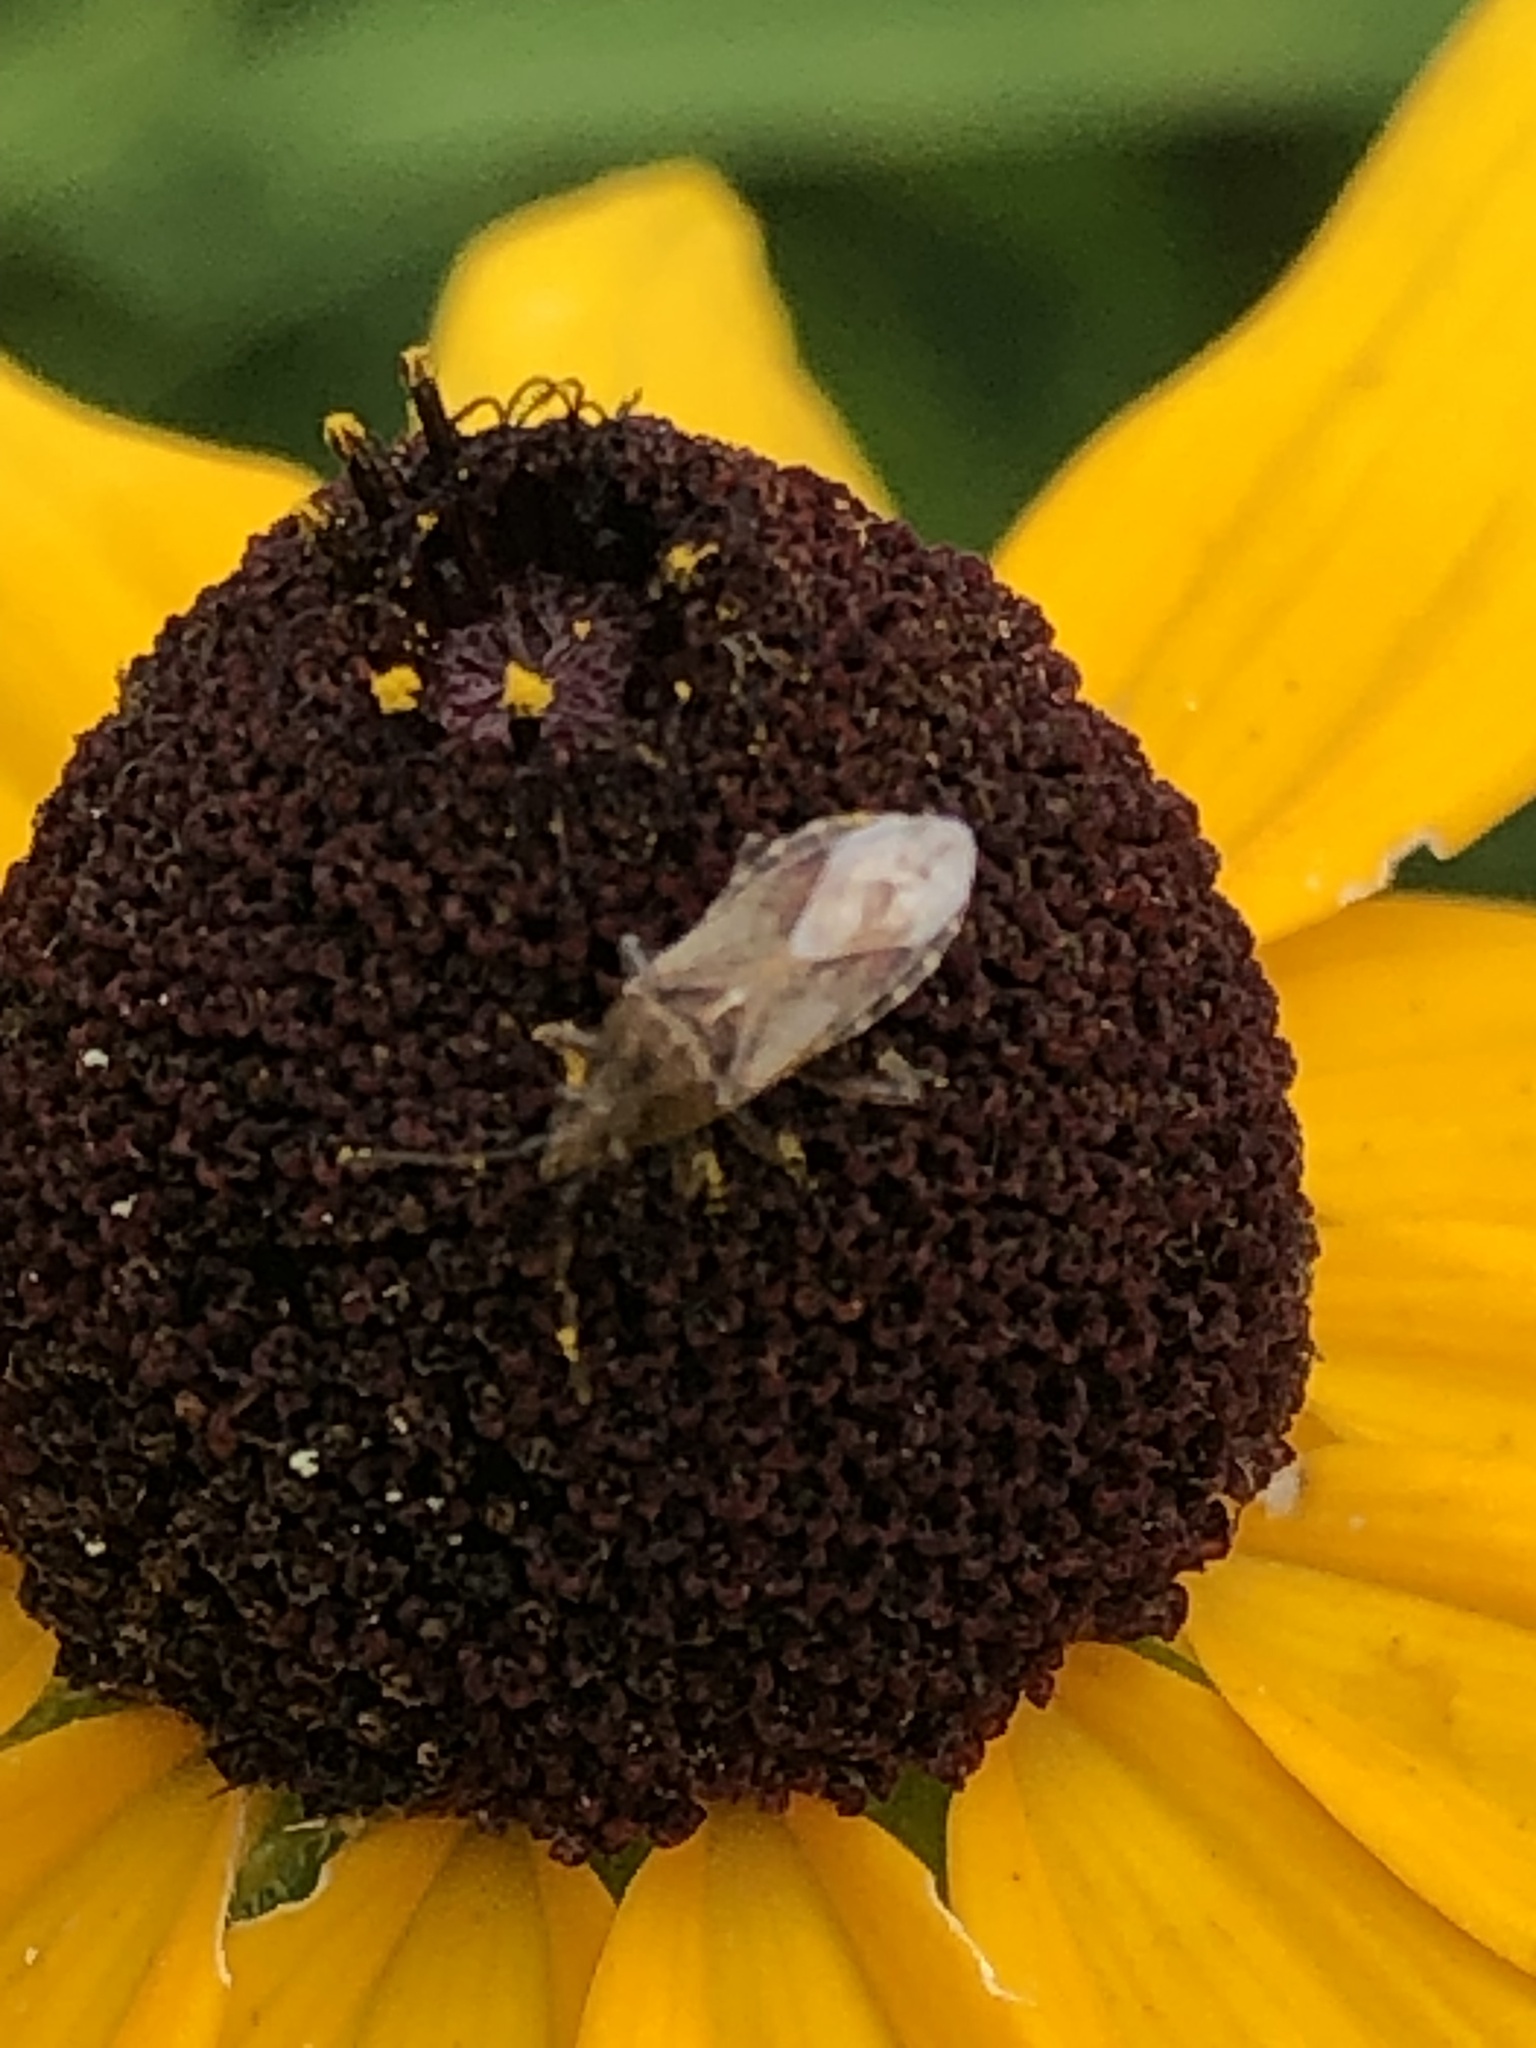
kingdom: Animalia
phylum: Arthropoda
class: Insecta
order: Hemiptera
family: Lygaeidae
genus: Neortholomus
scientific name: Neortholomus scolopax
